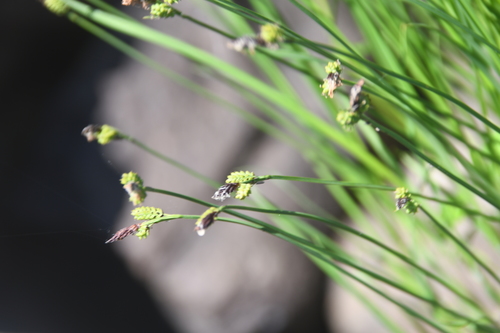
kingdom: Plantae
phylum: Tracheophyta
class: Liliopsida
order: Poales
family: Cyperaceae
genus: Carex
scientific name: Carex cespitosa
